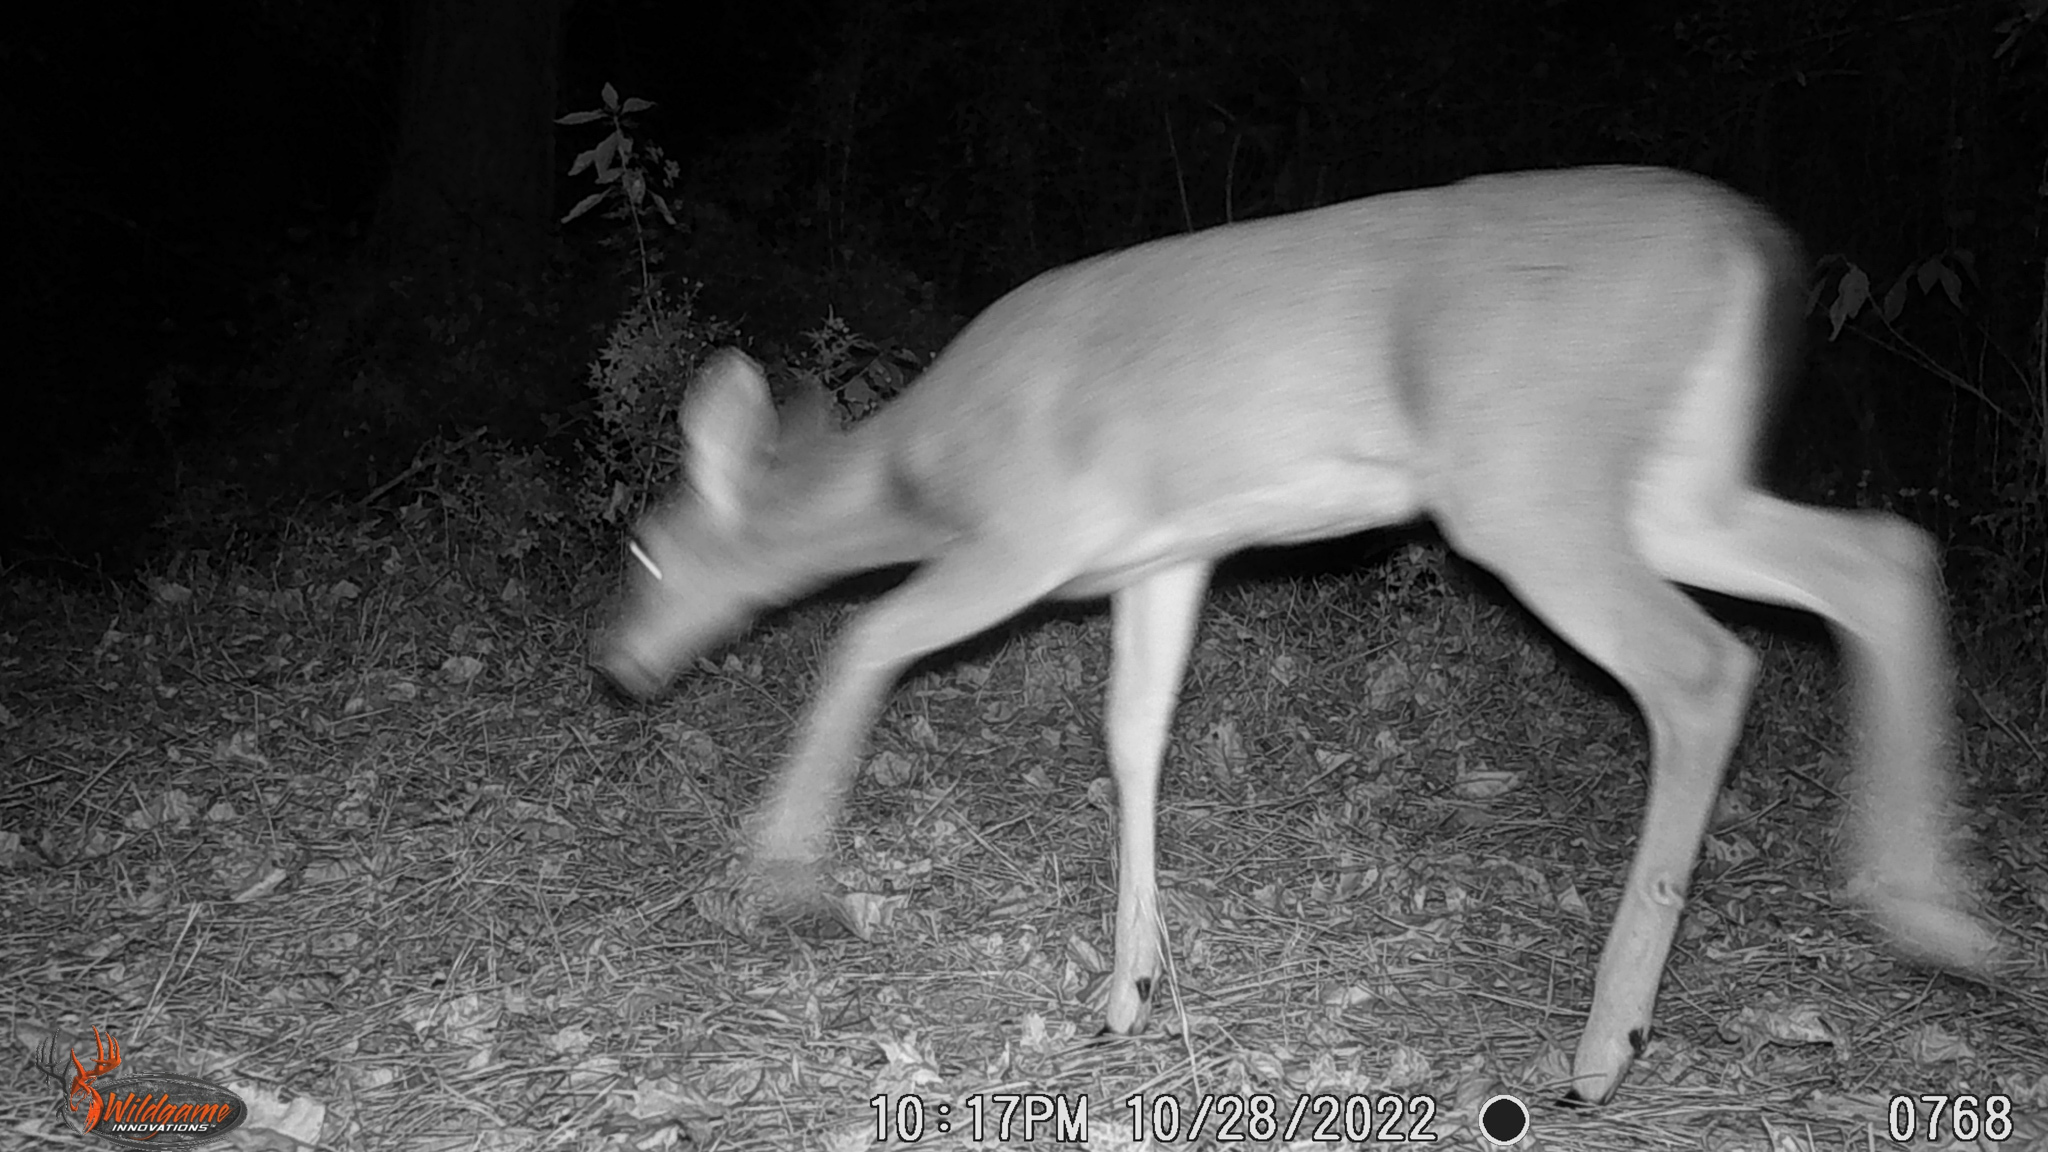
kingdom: Animalia
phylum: Chordata
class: Mammalia
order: Artiodactyla
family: Cervidae
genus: Odocoileus
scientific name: Odocoileus virginianus
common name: White-tailed deer
